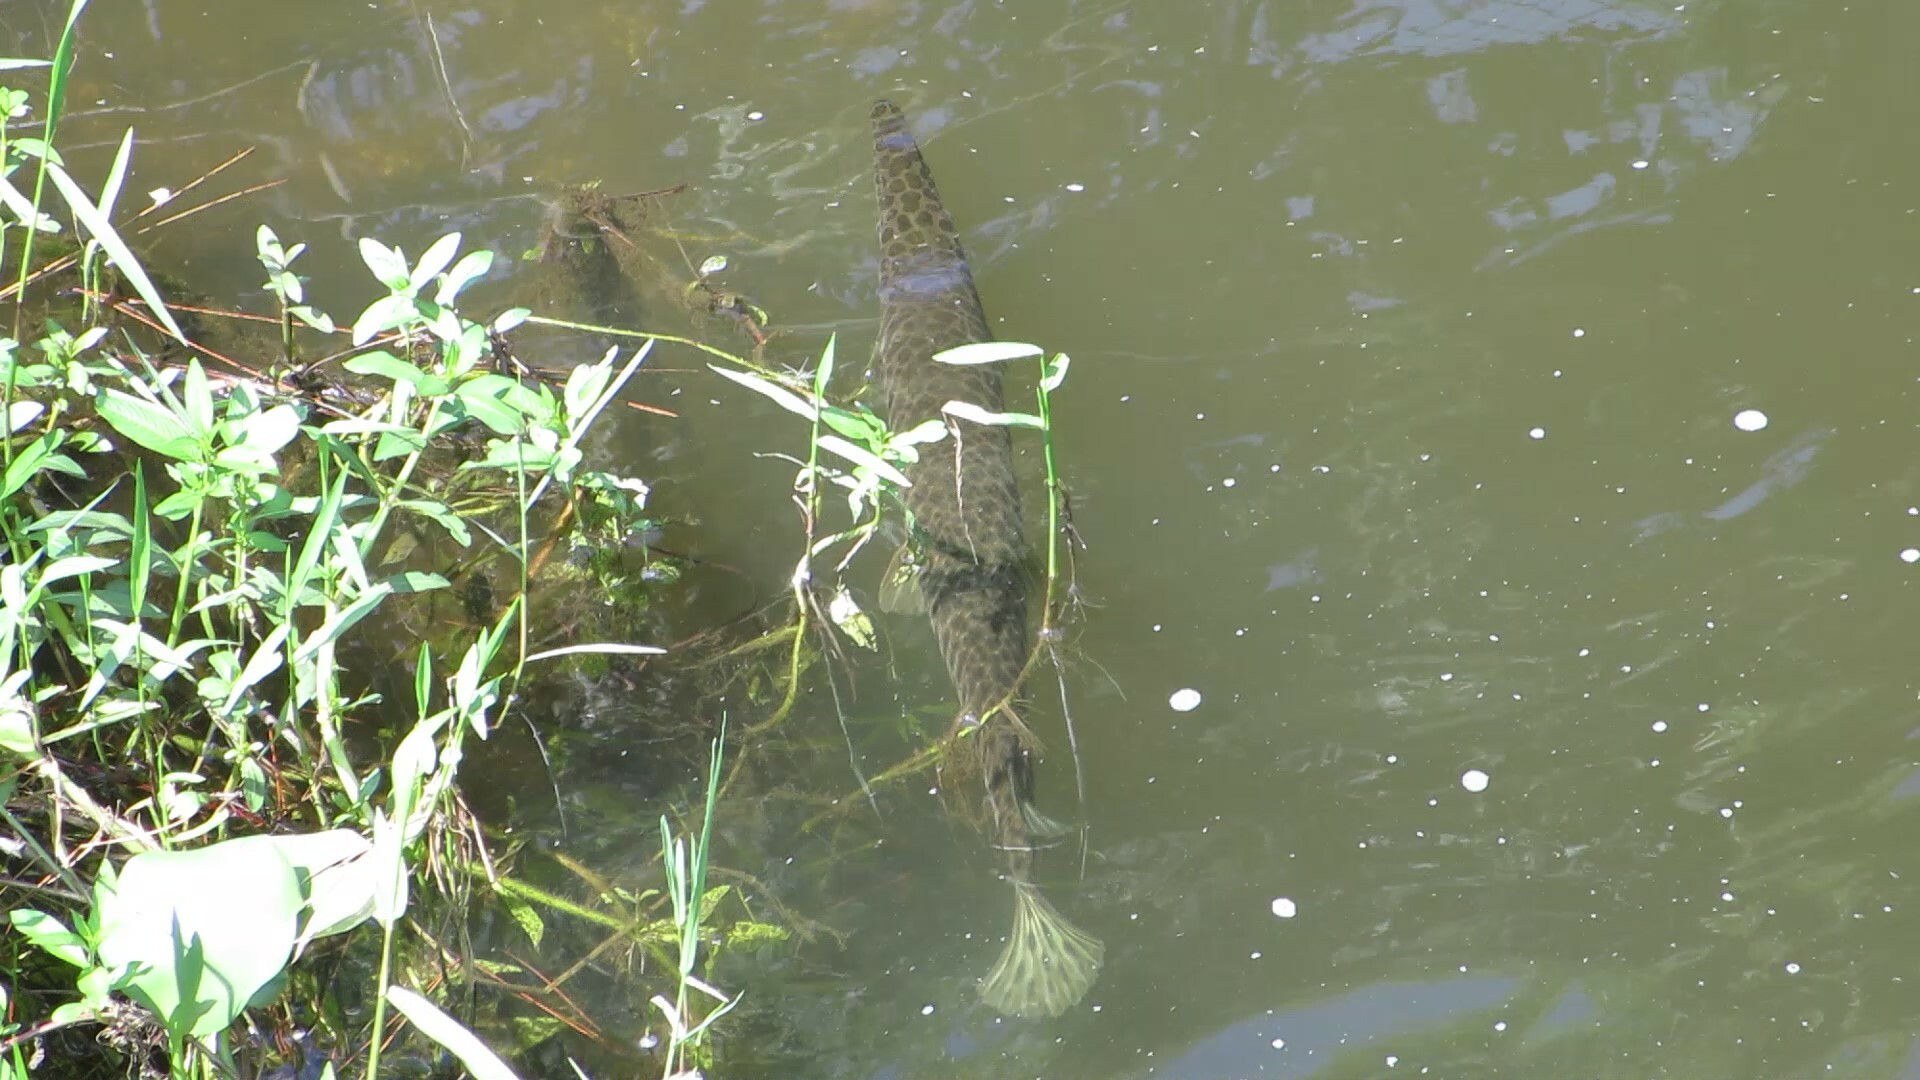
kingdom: Animalia
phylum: Chordata
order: Lepisosteiformes
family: Lepisosteidae
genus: Lepisosteus
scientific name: Lepisosteus platyrhincus
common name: Florida gar
